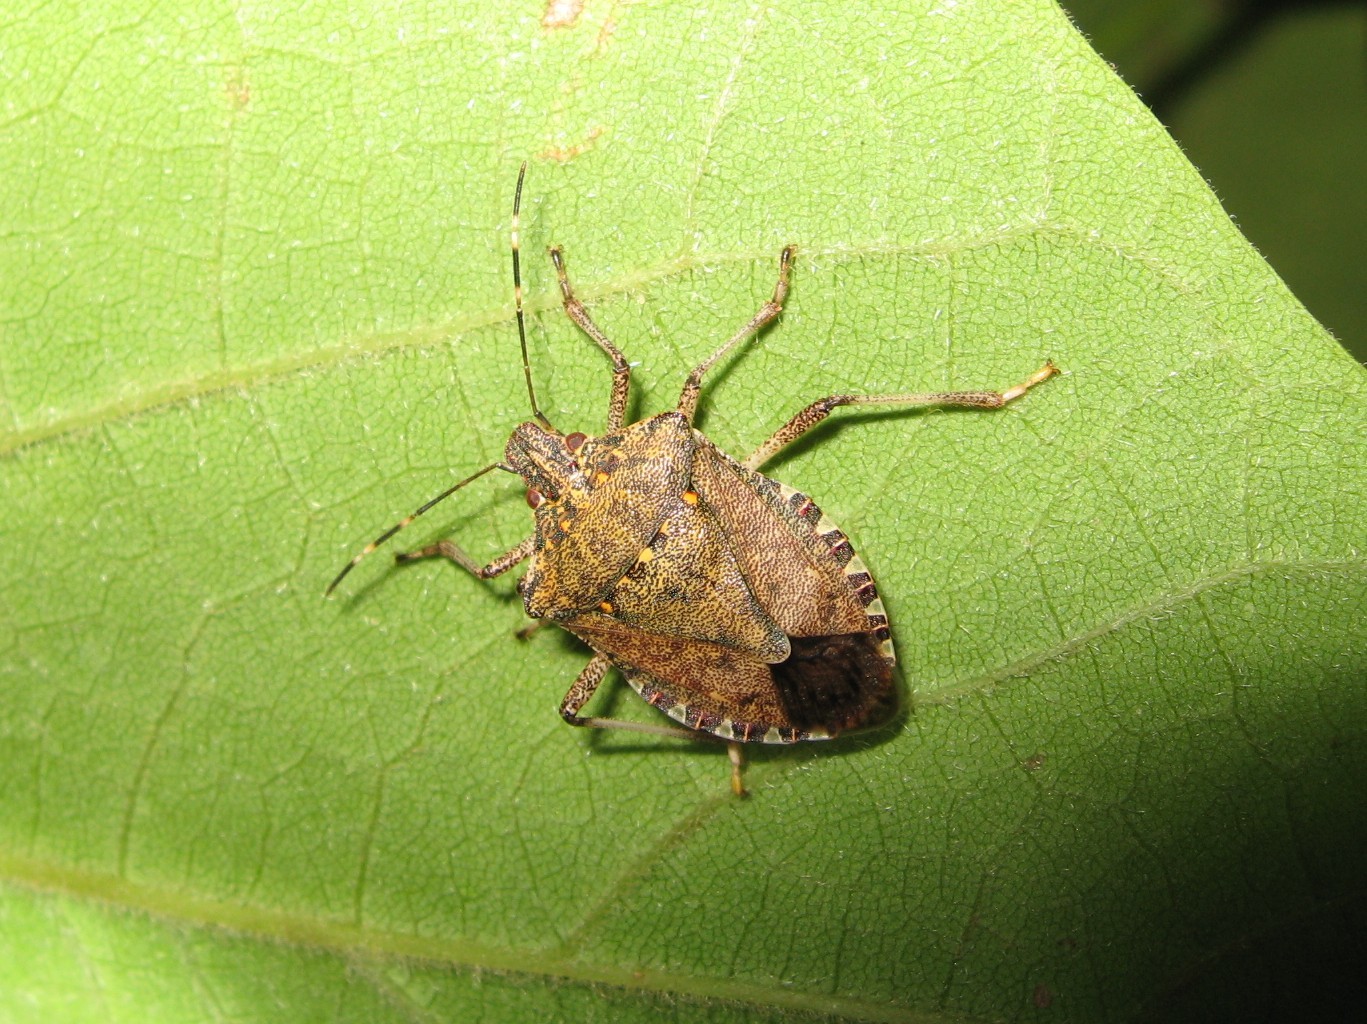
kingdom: Animalia
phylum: Arthropoda
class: Insecta
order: Hemiptera
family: Pentatomidae
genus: Halyomorpha
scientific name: Halyomorpha halys
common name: Brown marmorated stink bug
